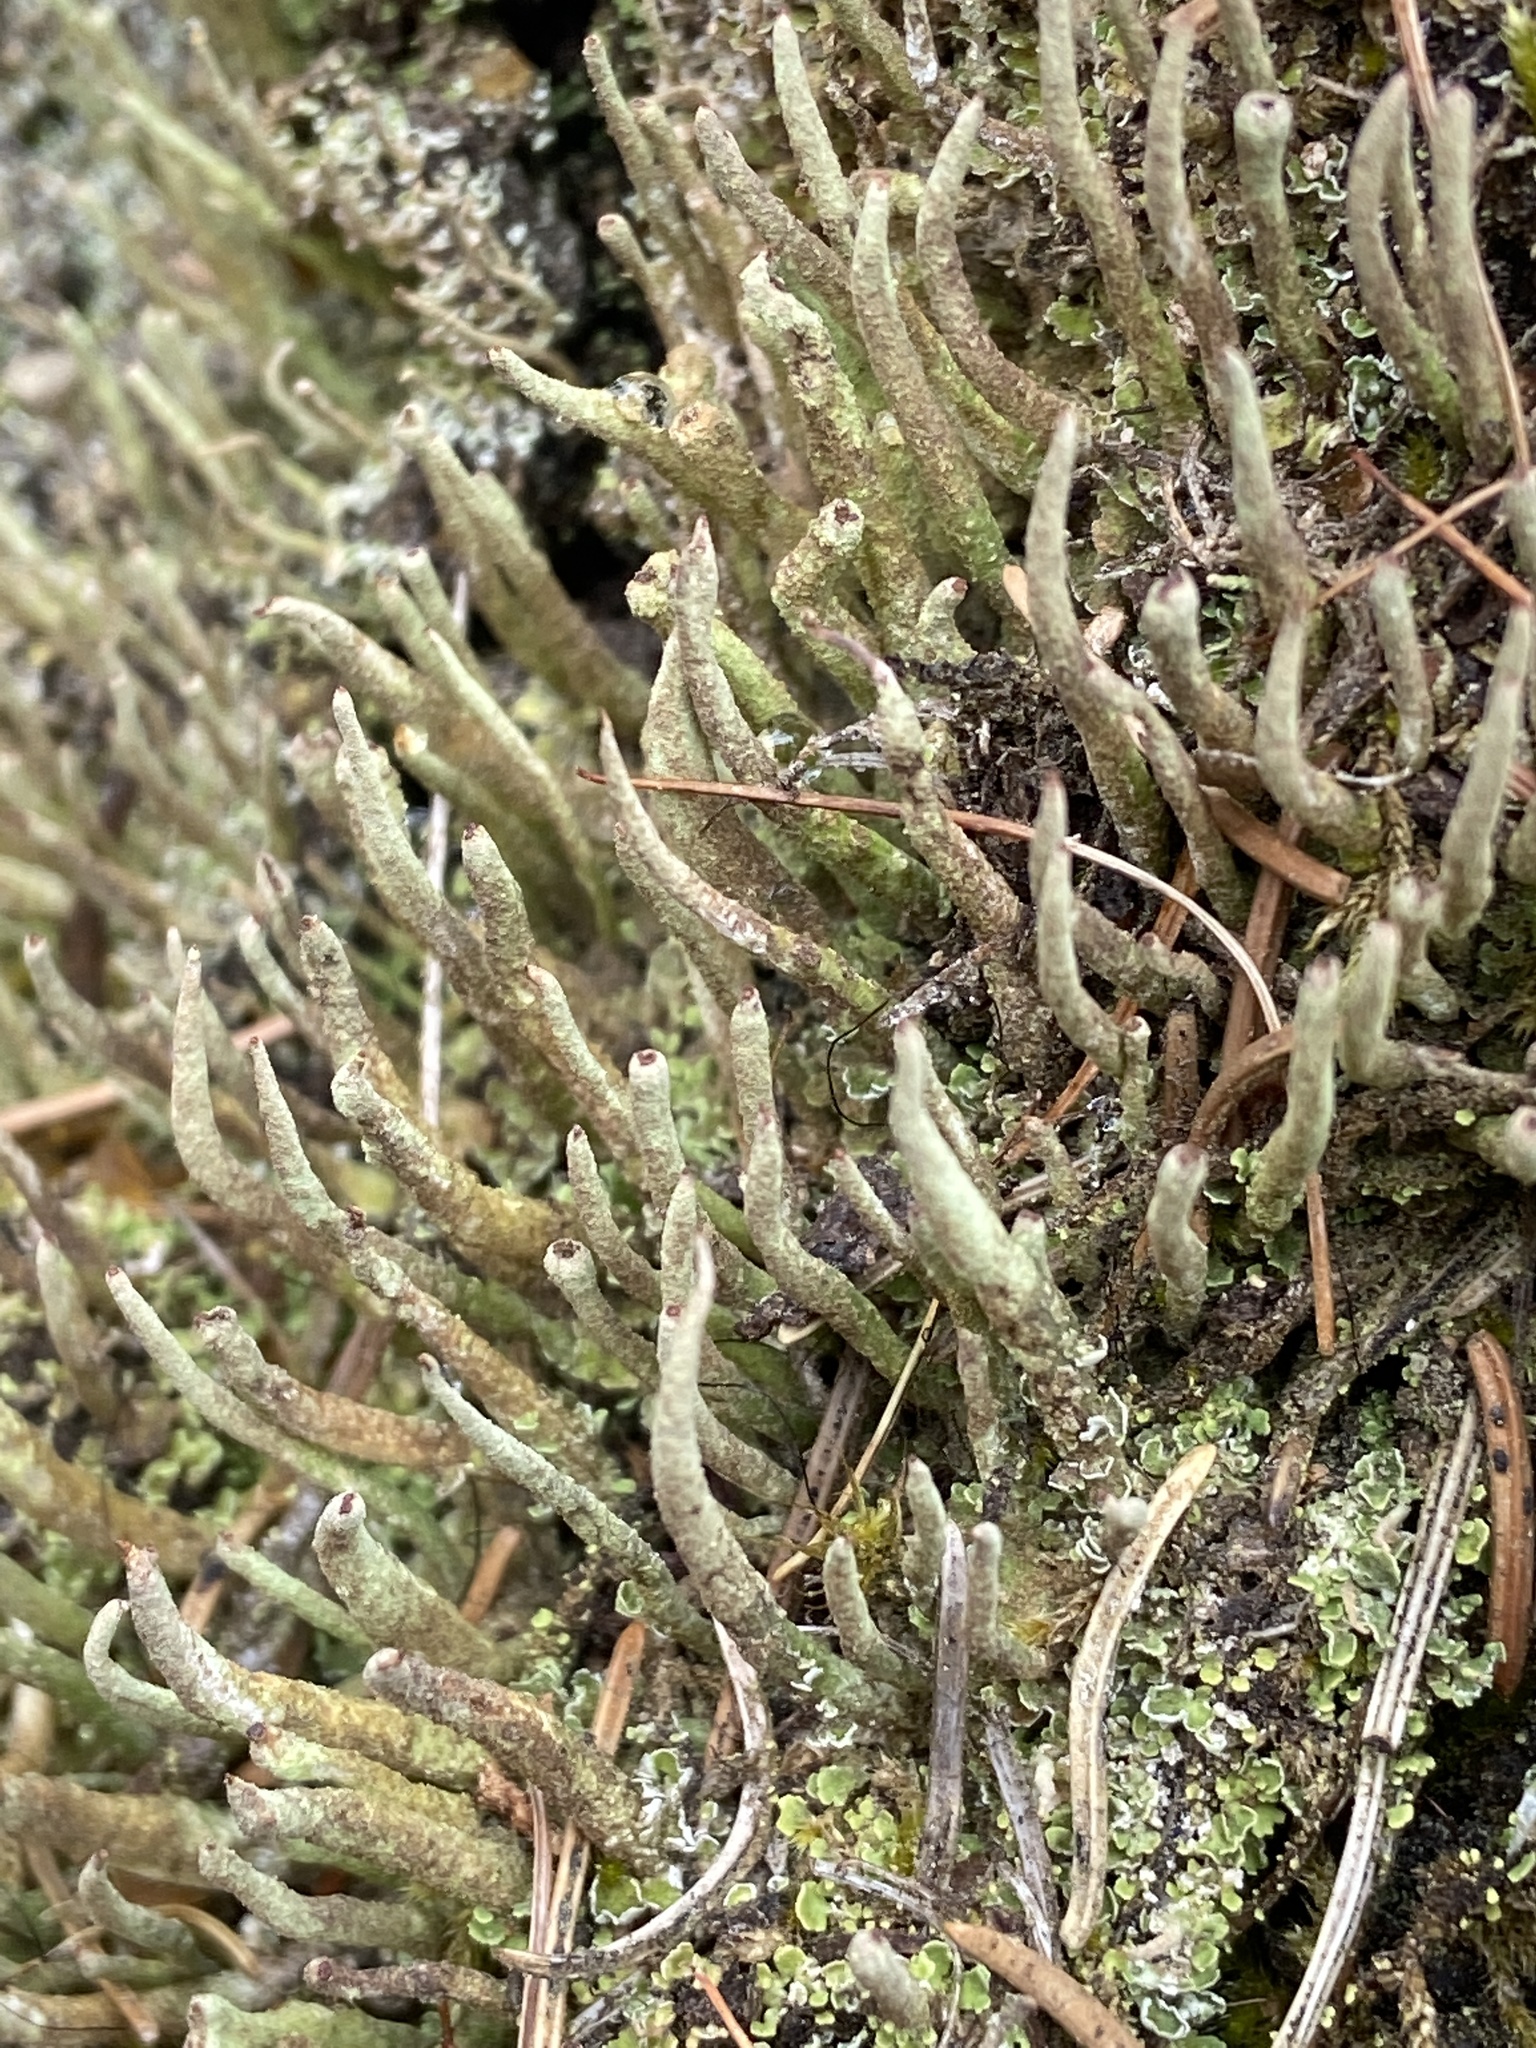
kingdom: Fungi
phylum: Ascomycota
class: Lecanoromycetes
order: Lecanorales
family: Cladoniaceae
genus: Cladonia
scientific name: Cladonia coniocraea
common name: Common powderhorn
